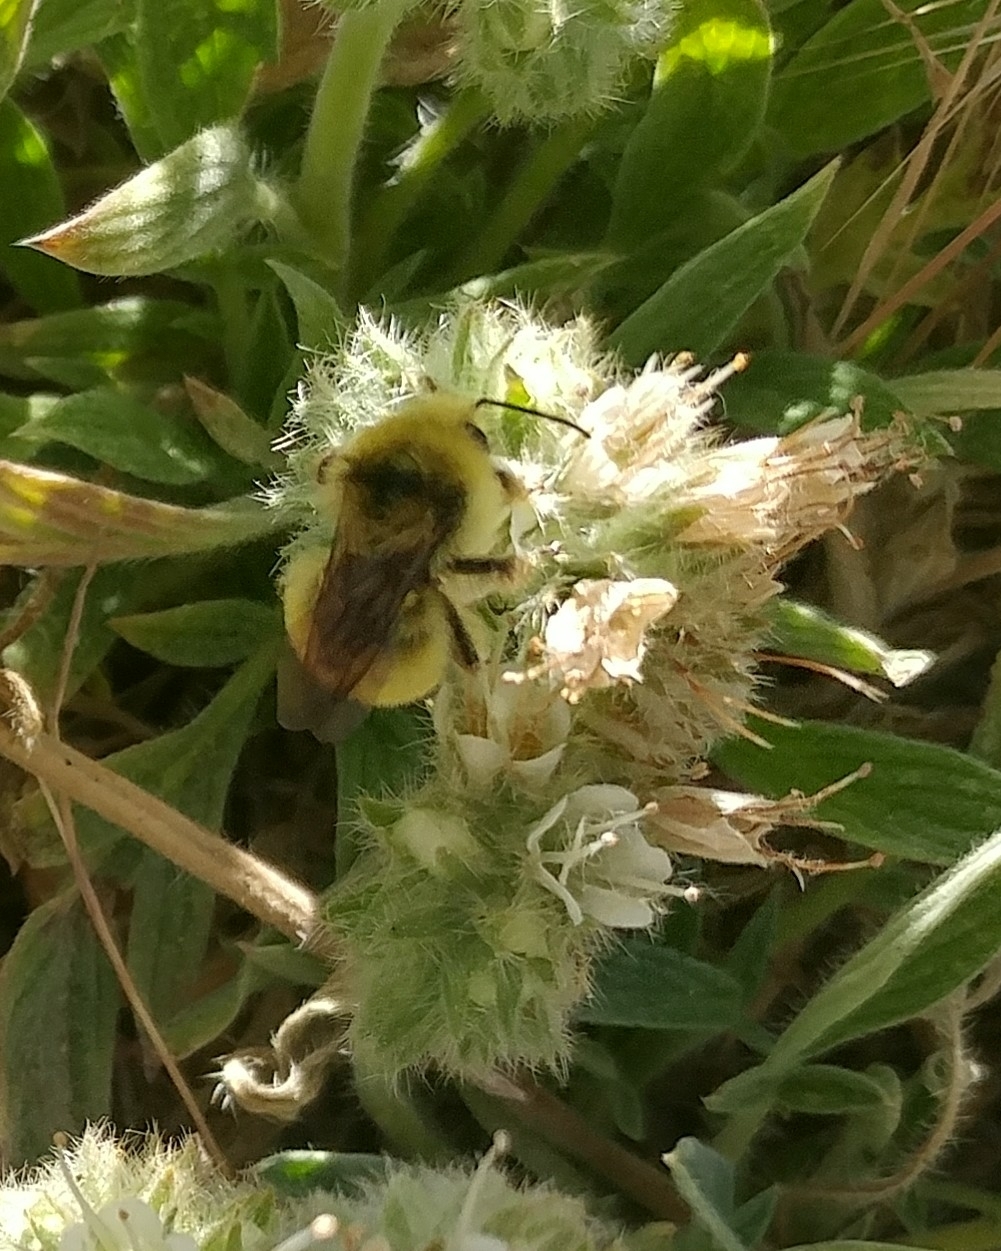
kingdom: Animalia
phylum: Arthropoda
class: Insecta
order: Hymenoptera
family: Apidae
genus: Bombus
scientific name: Bombus vandykei
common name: Van dyke bumble bee
